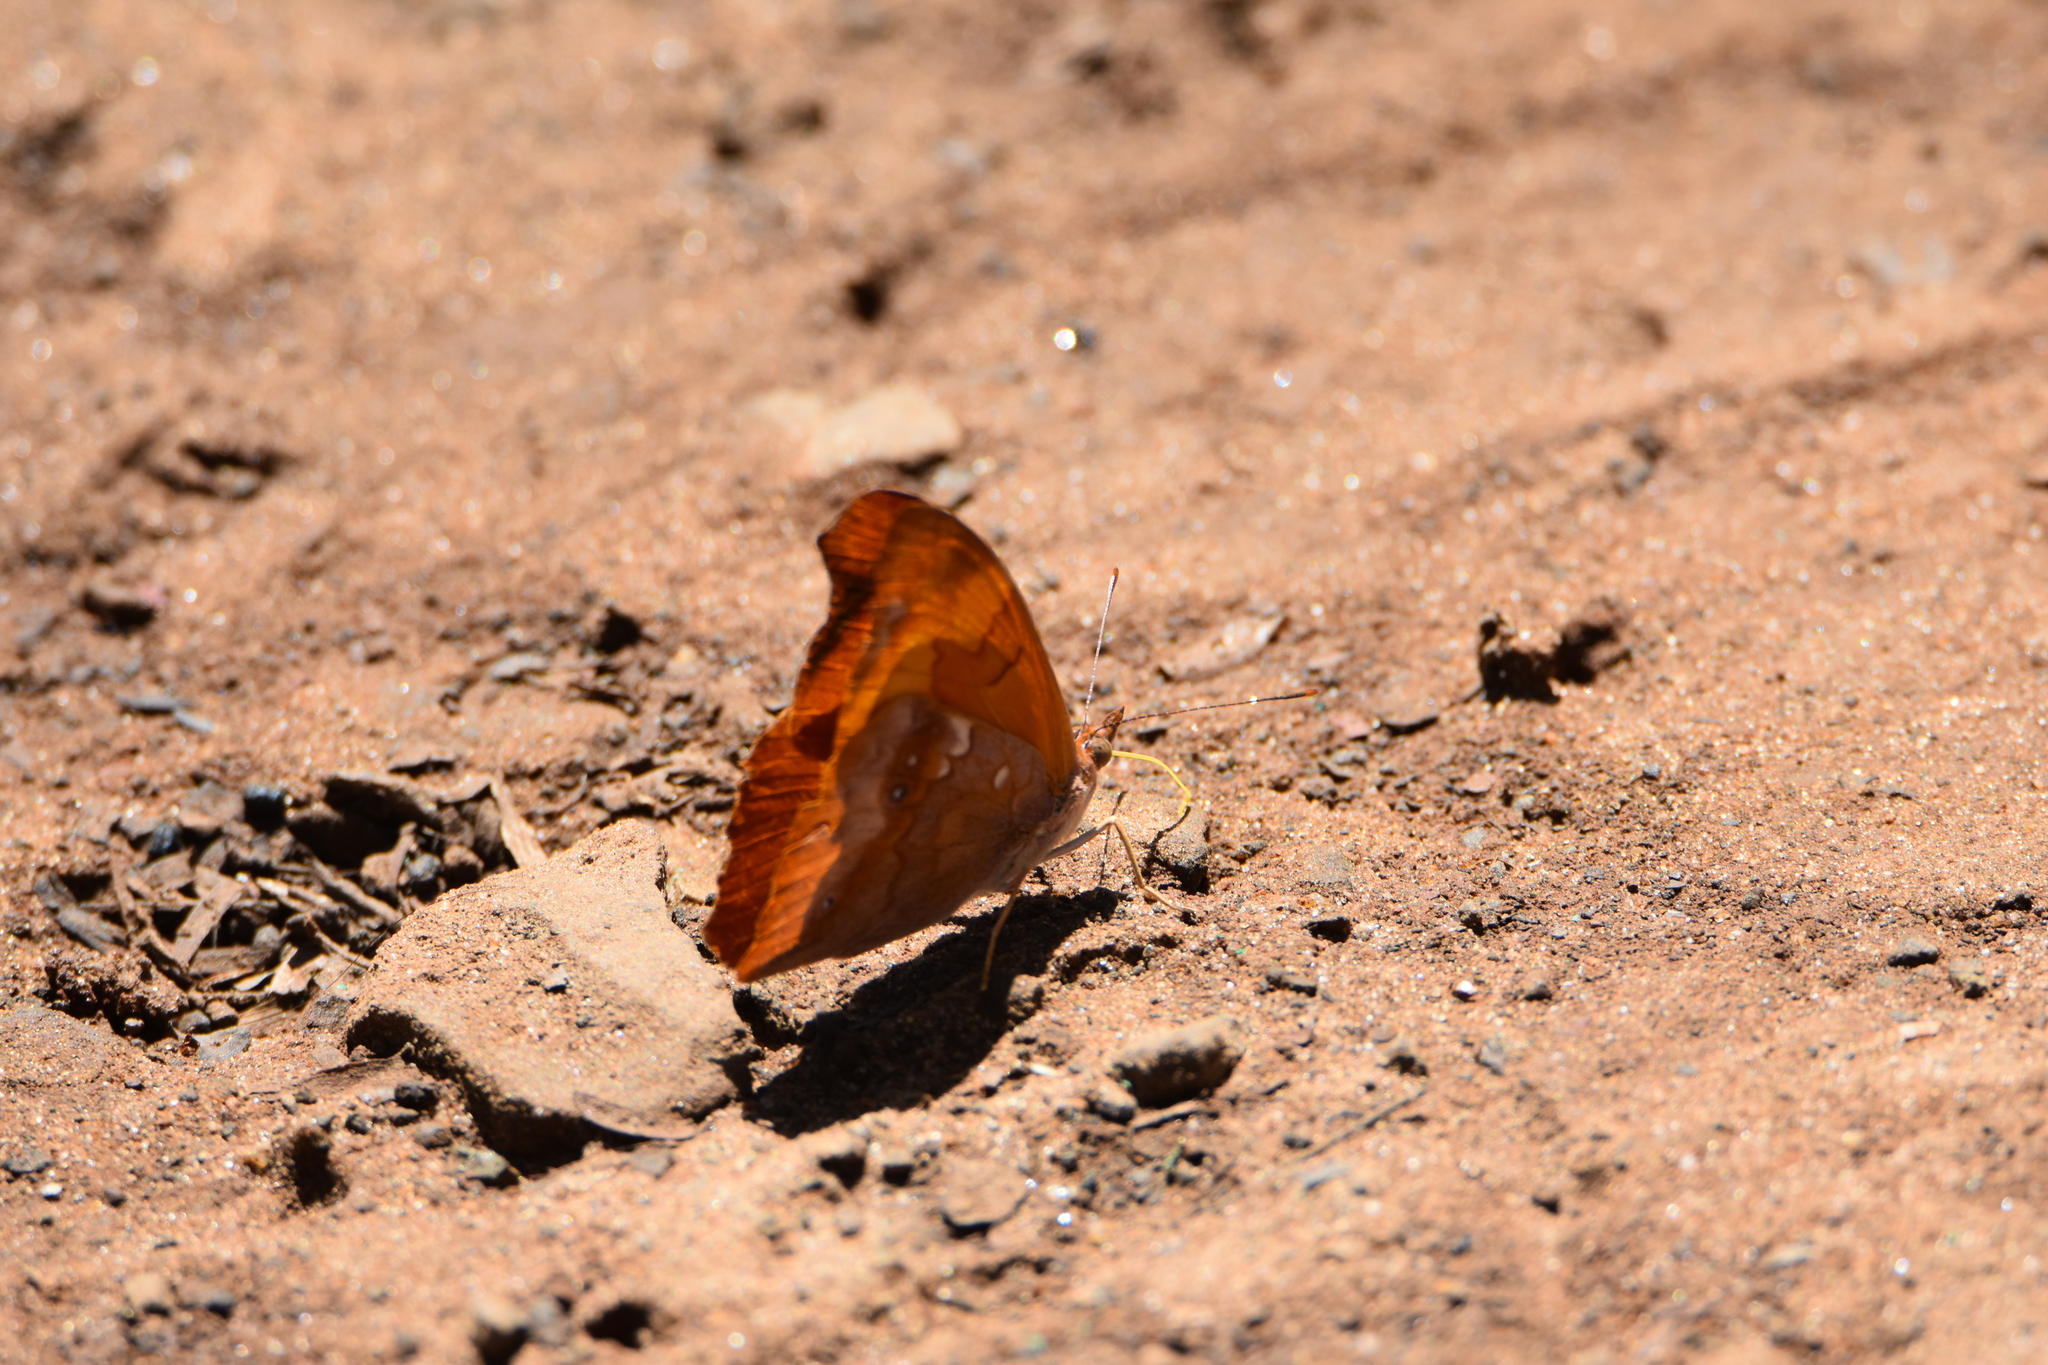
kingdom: Animalia
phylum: Arthropoda
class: Insecta
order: Lepidoptera
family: Nymphalidae
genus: Temenis
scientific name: Temenis laothoe
